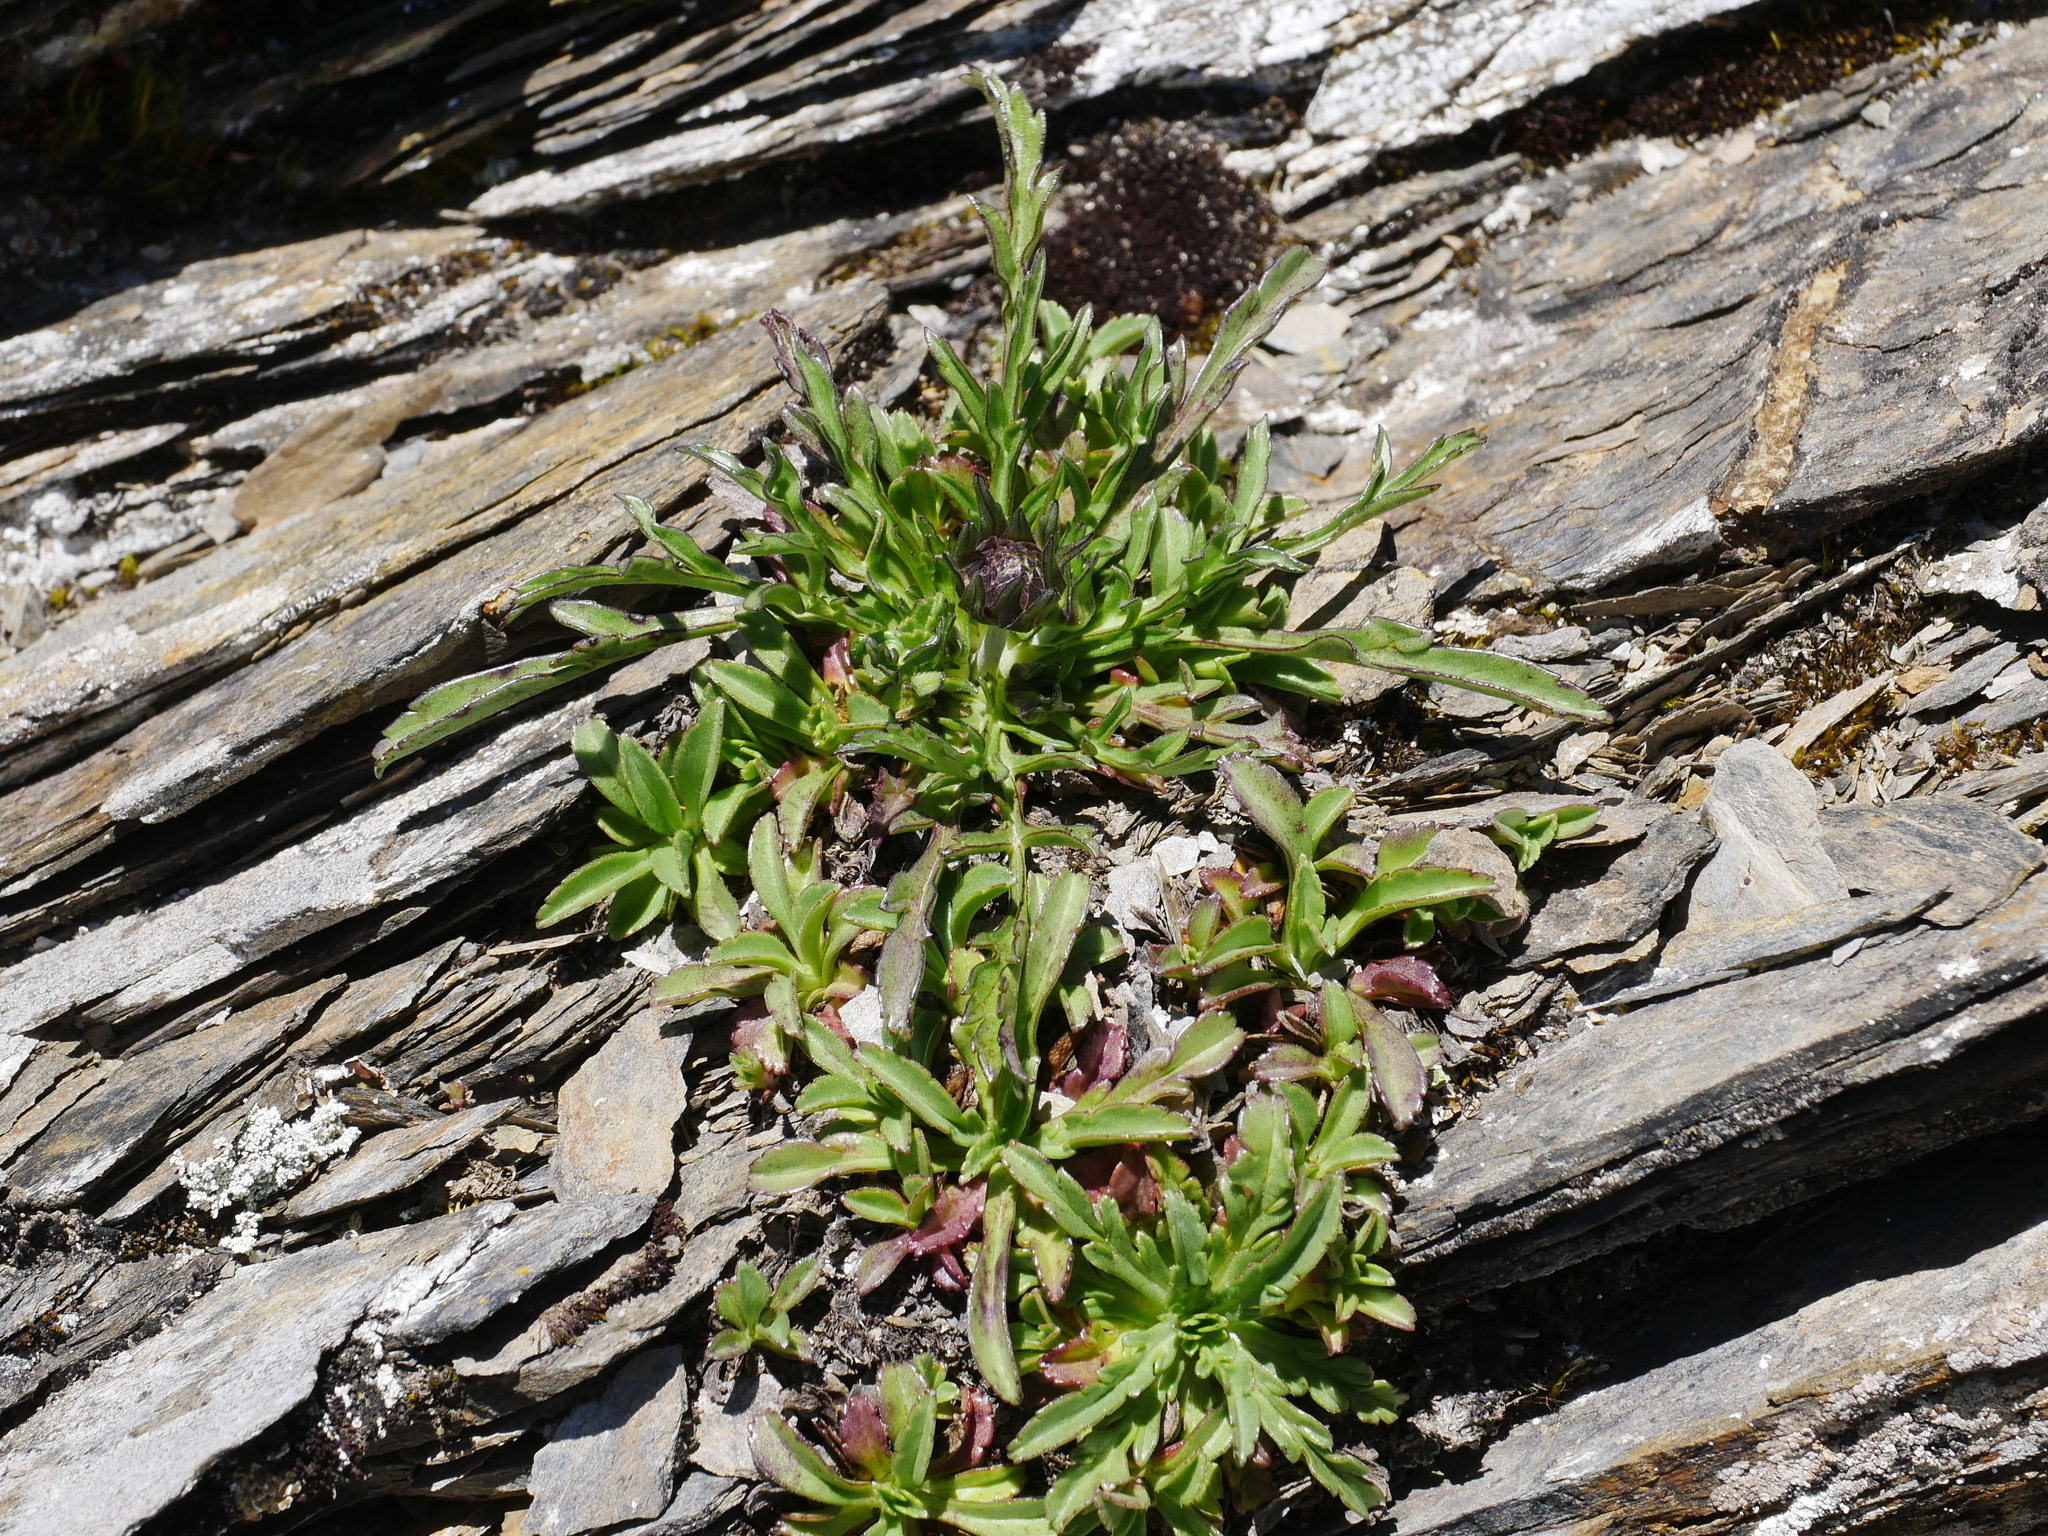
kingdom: Plantae
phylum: Tracheophyta
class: Magnoliopsida
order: Dipsacales
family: Caprifoliaceae
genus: Scabiosa
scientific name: Scabiosa lacerifolia
